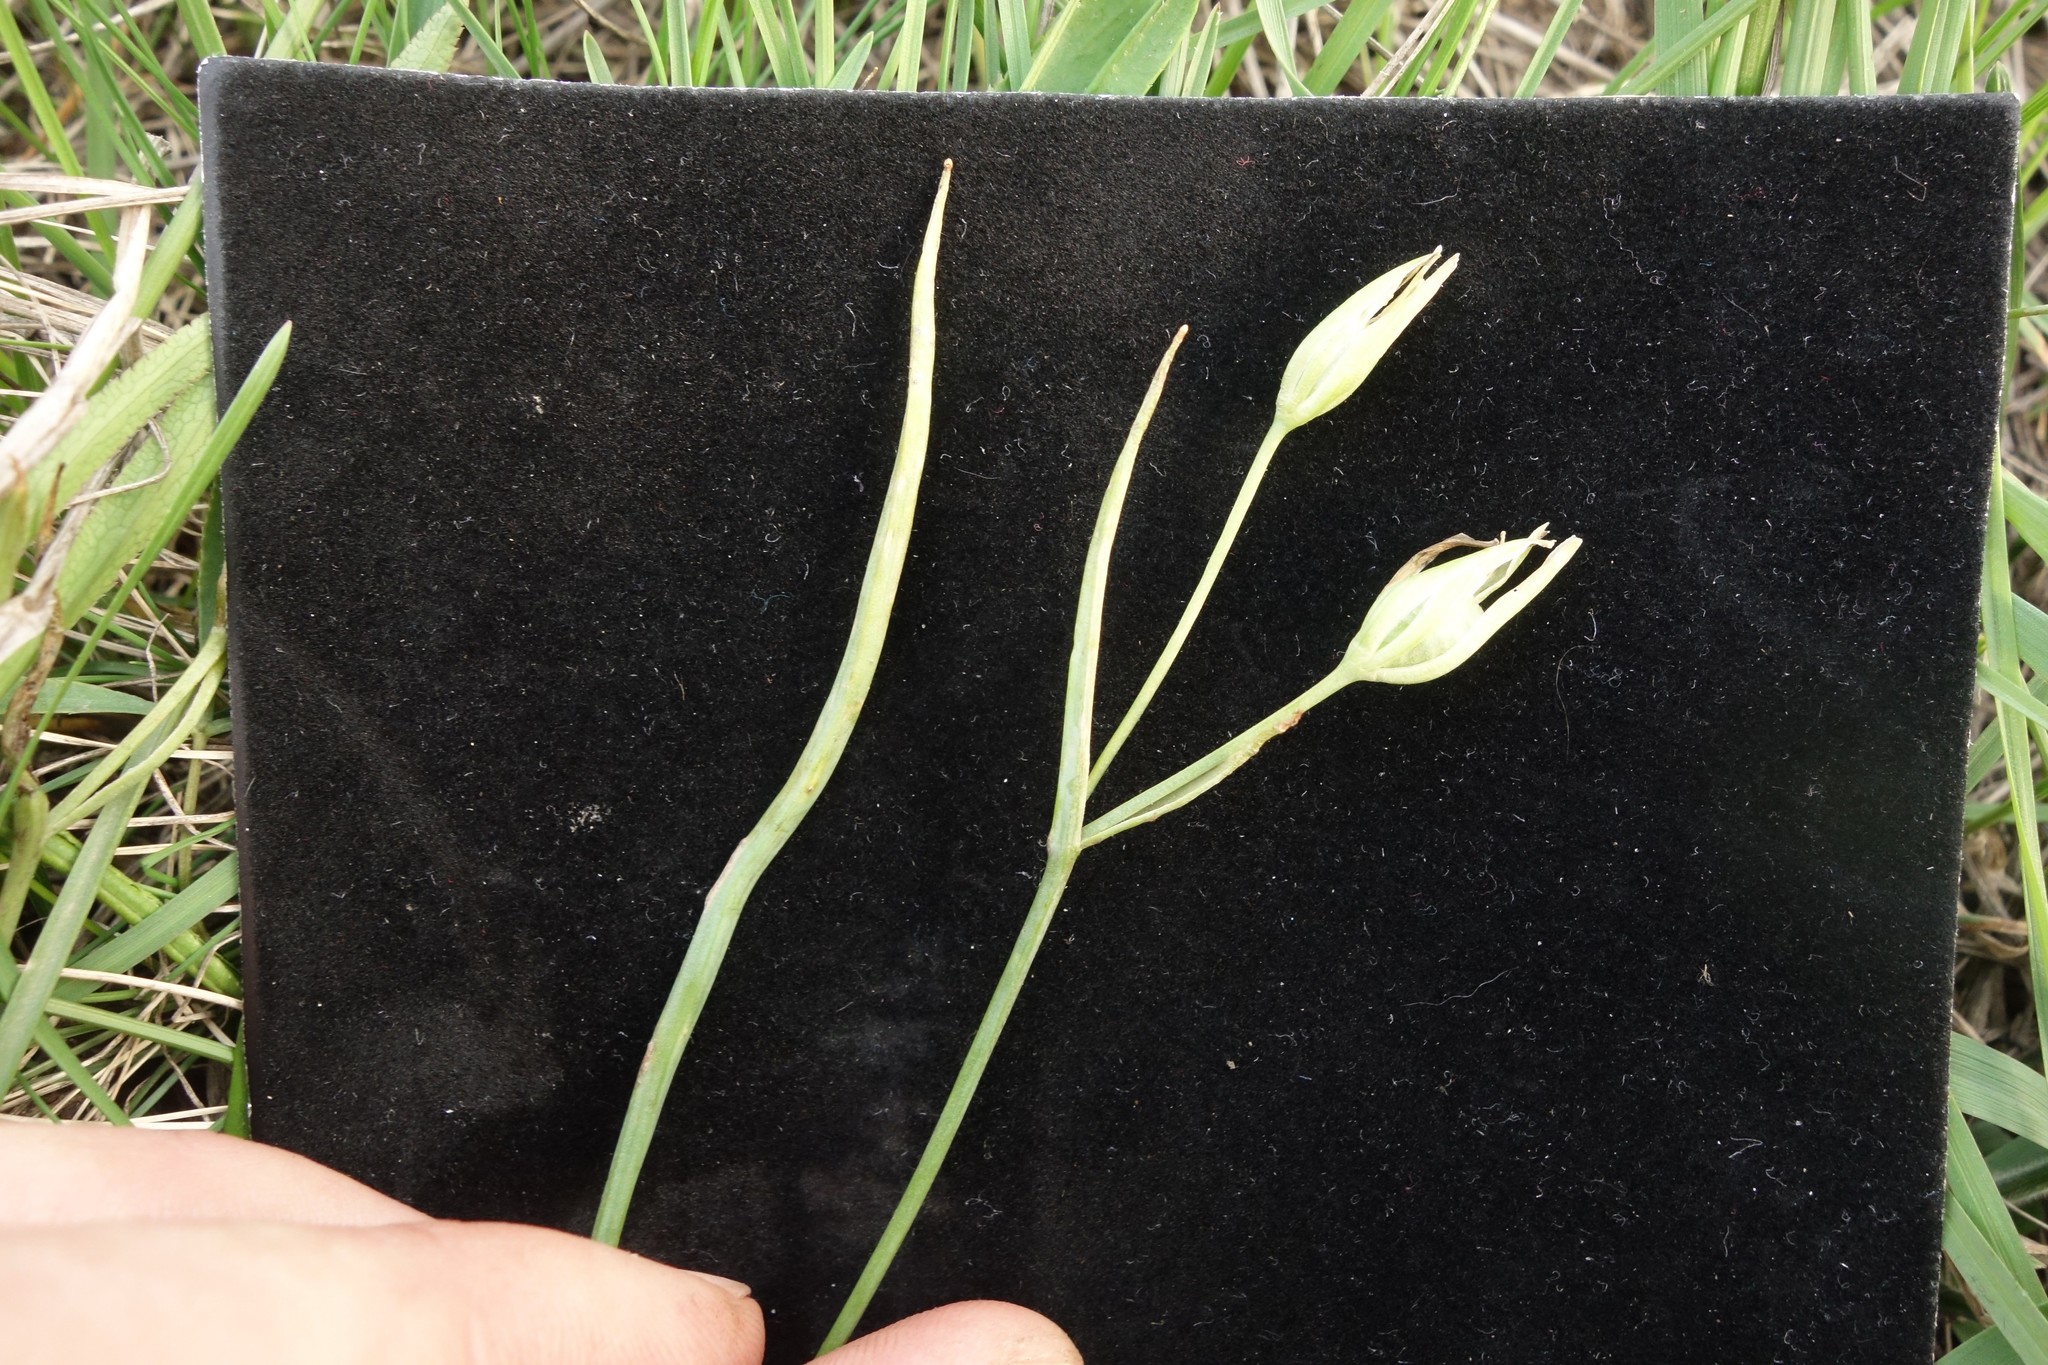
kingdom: Plantae
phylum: Tracheophyta
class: Liliopsida
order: Liliales
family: Liliaceae
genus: Gagea
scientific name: Gagea minima
